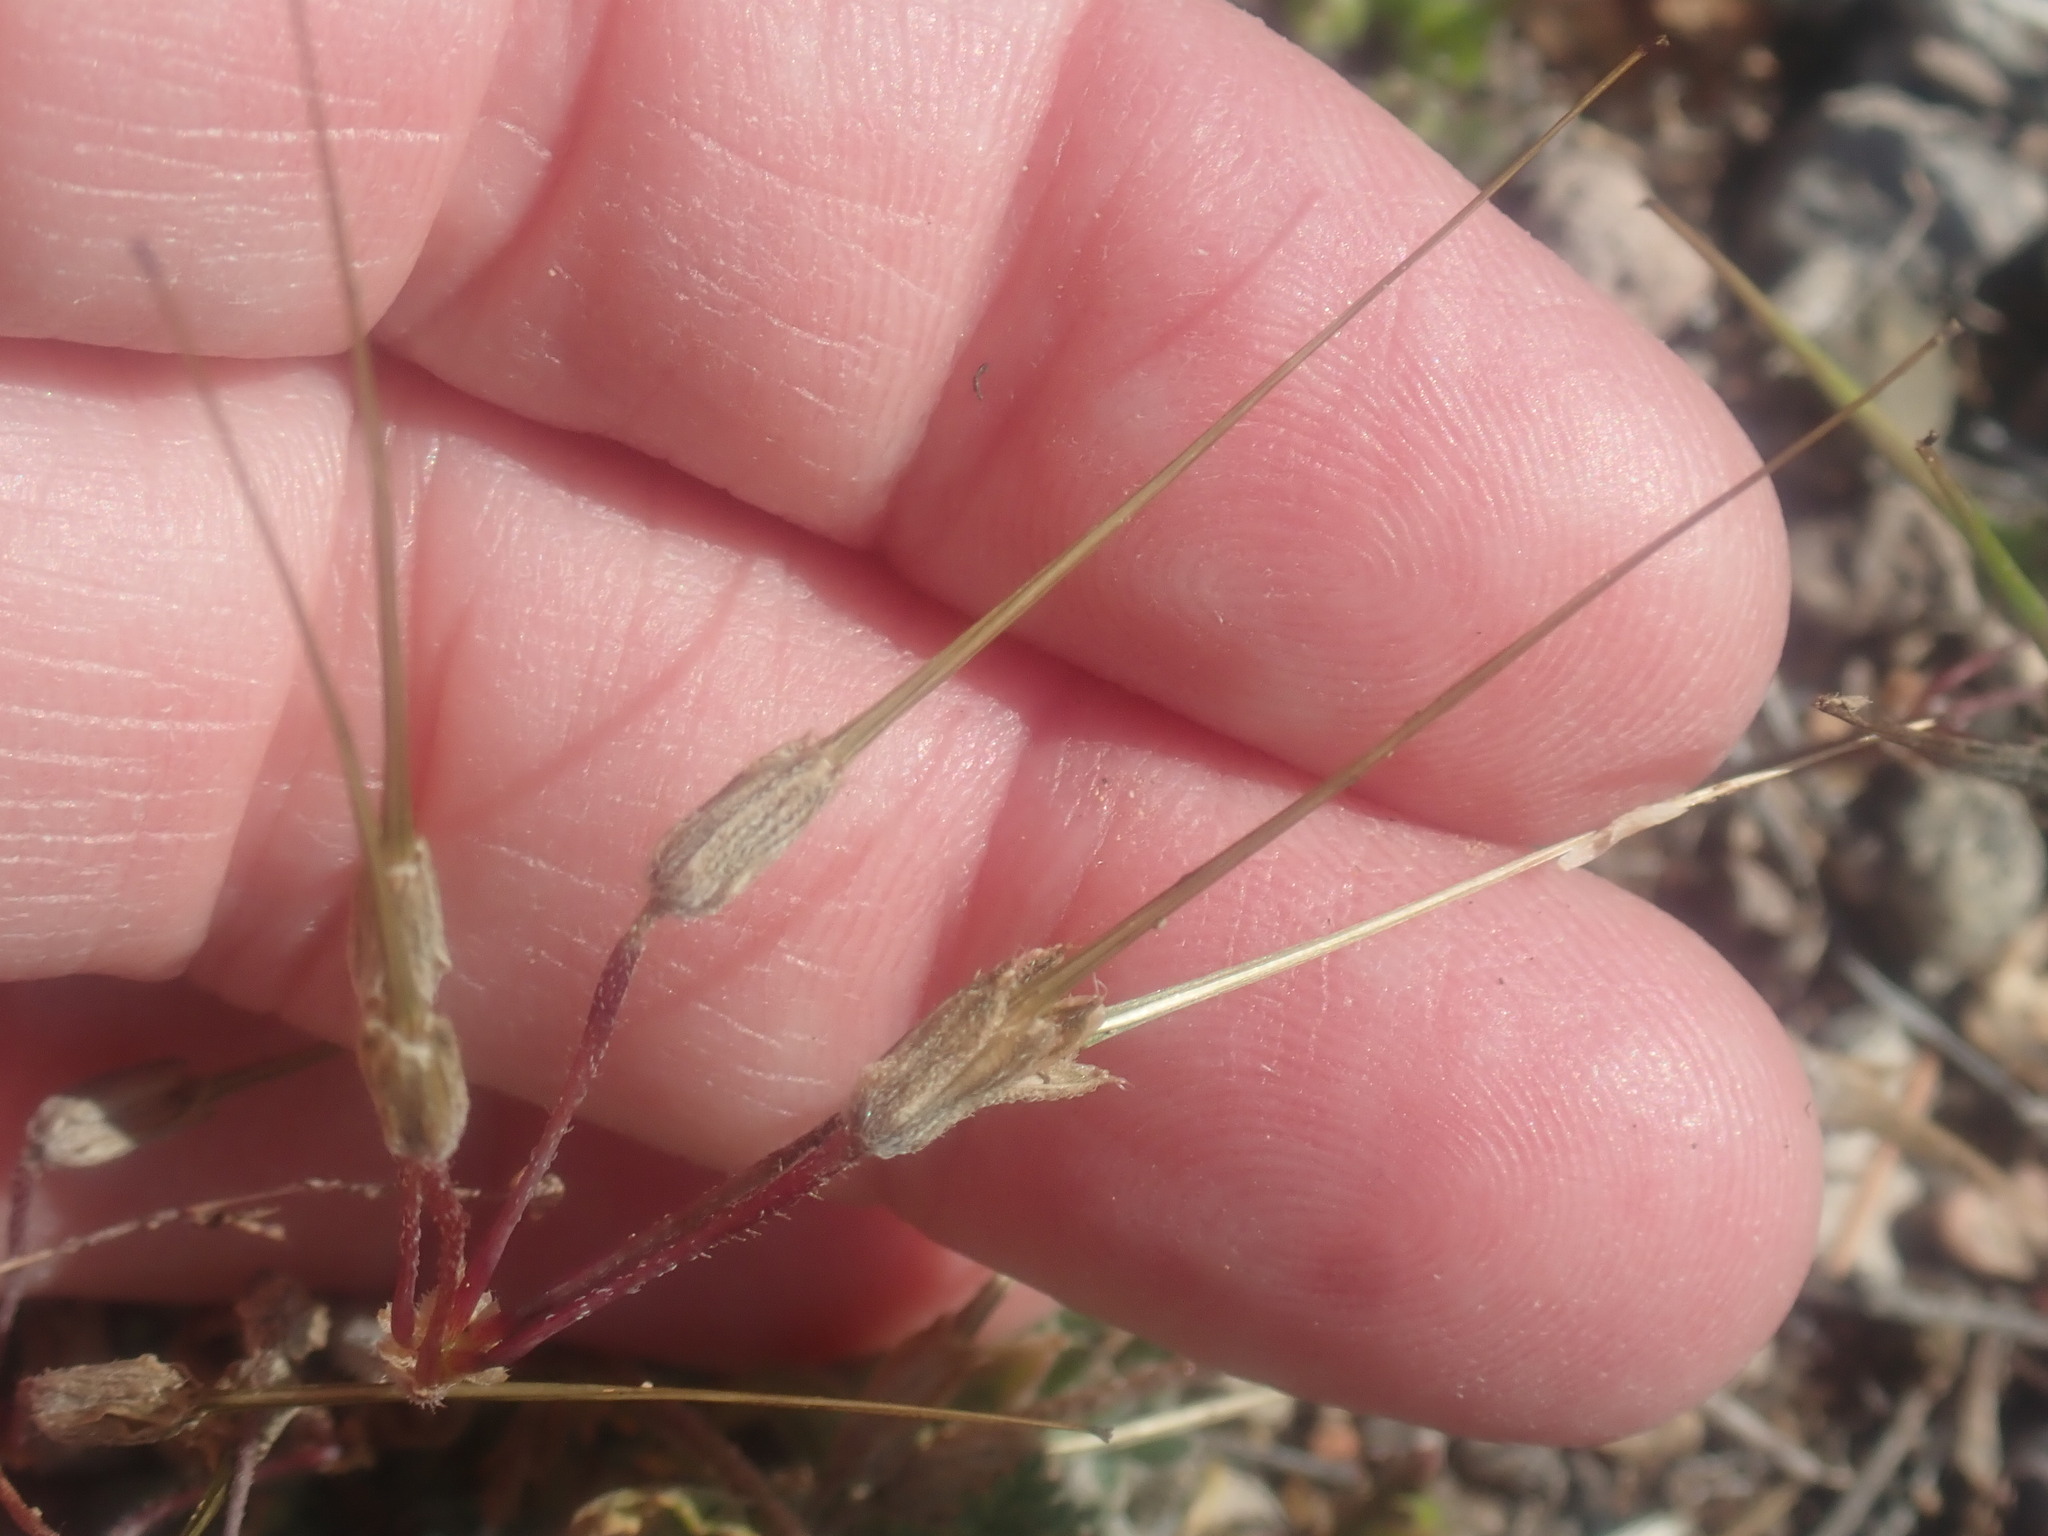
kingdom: Plantae
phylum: Tracheophyta
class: Magnoliopsida
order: Geraniales
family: Geraniaceae
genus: Erodium
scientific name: Erodium cicutarium
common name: Common stork's-bill
